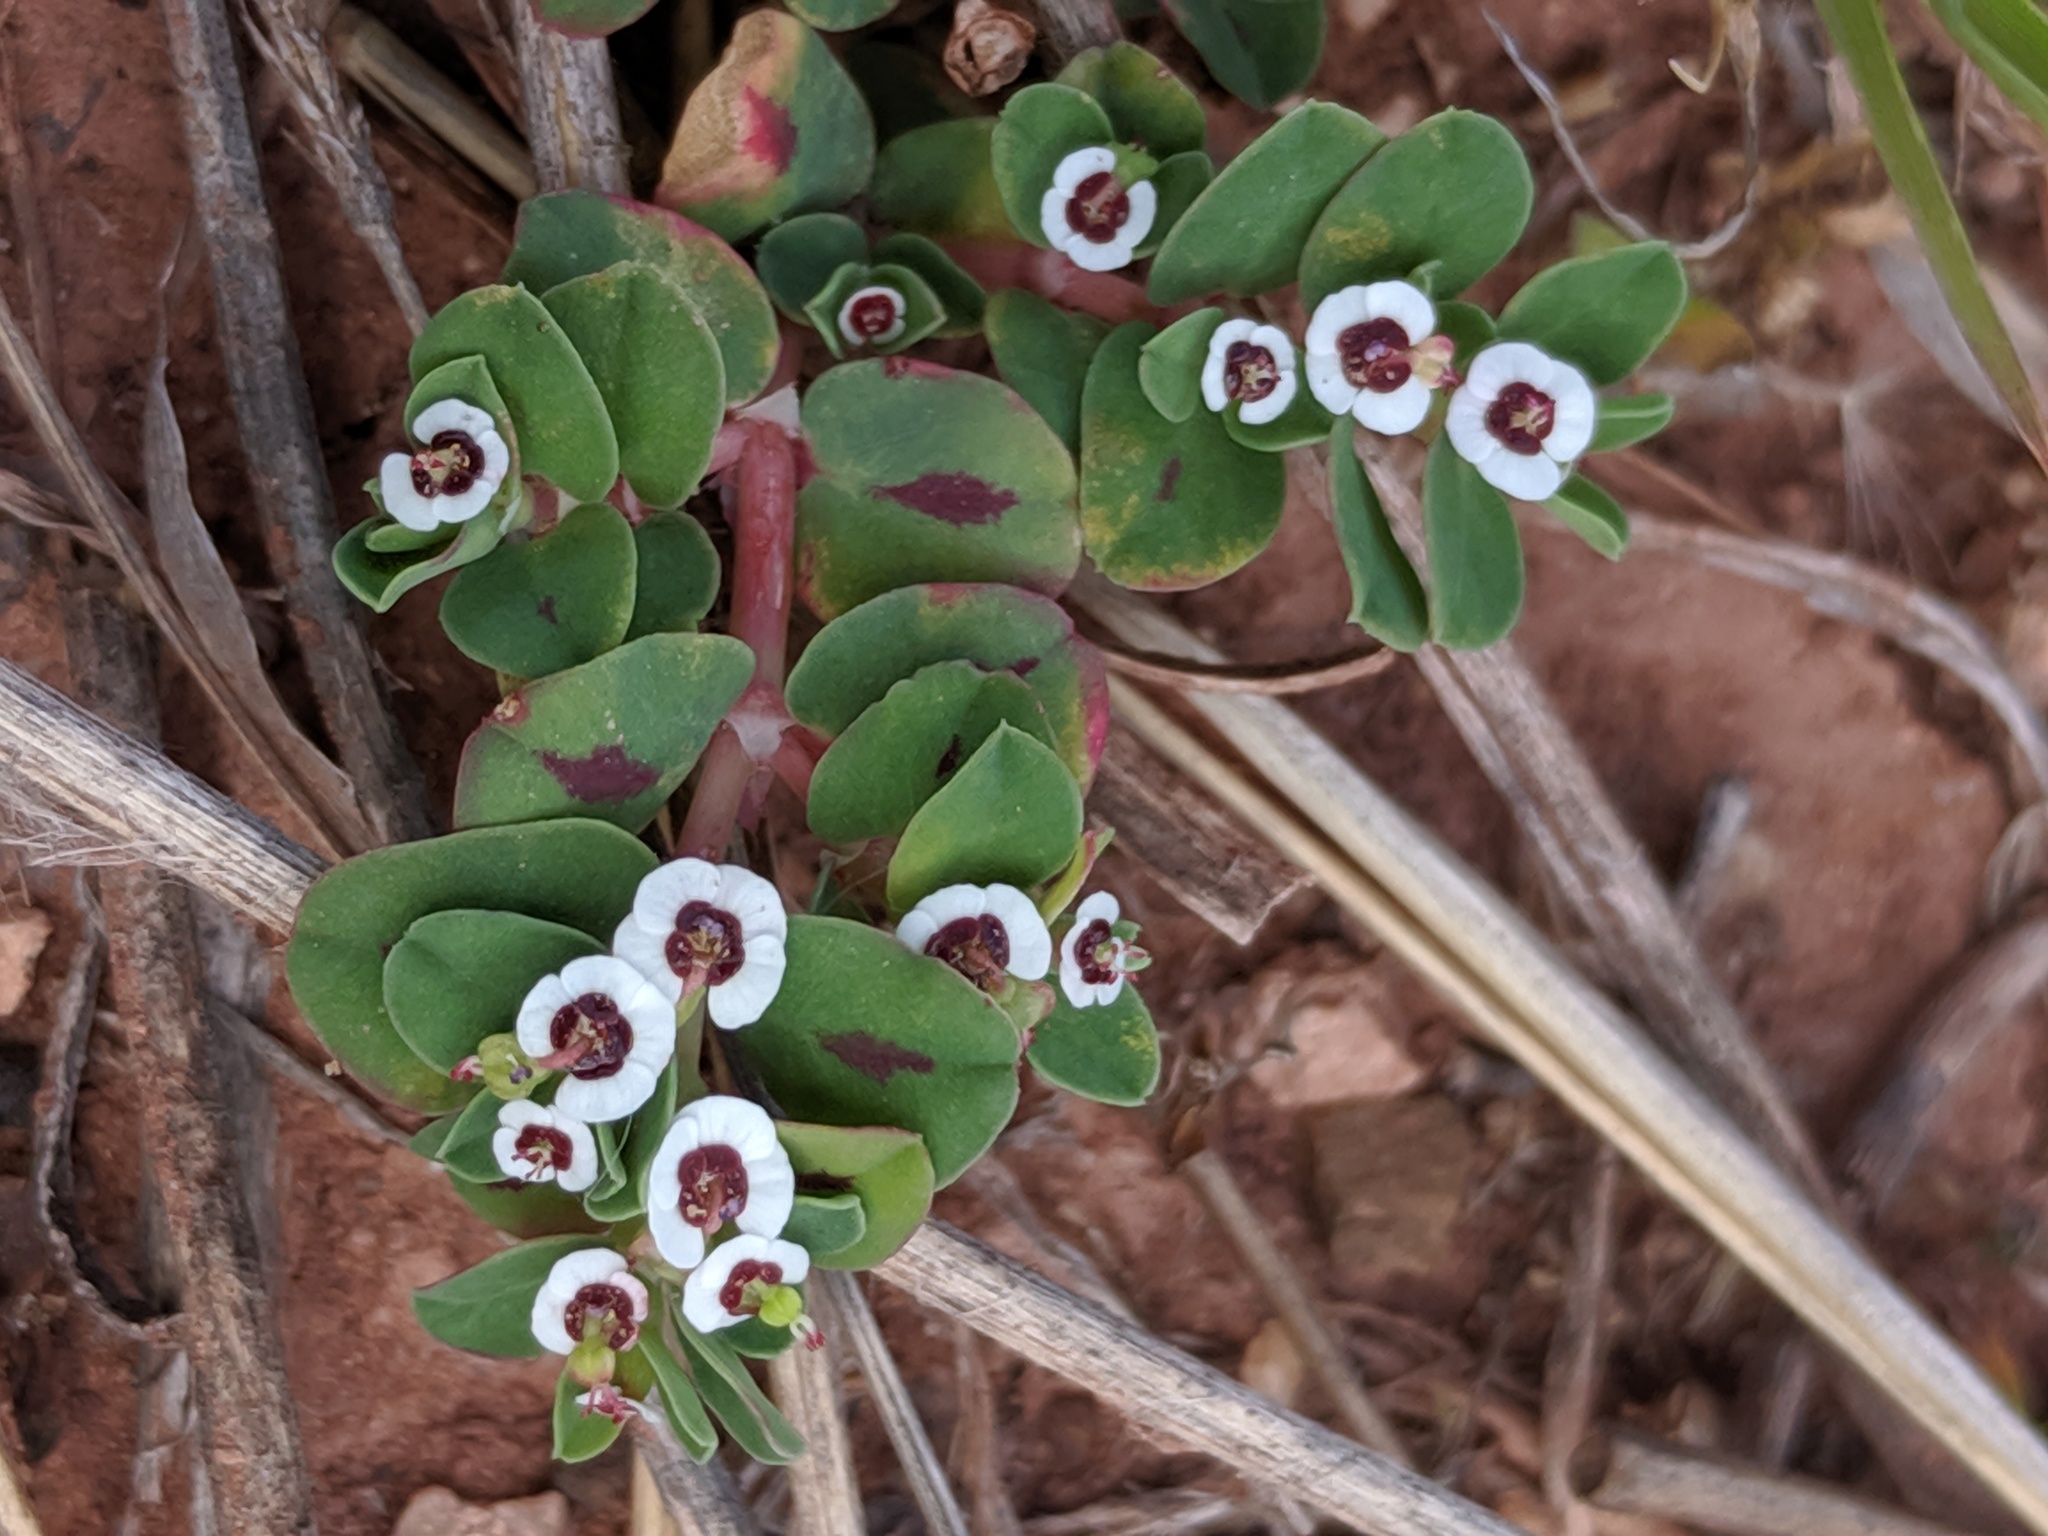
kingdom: Plantae
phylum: Tracheophyta
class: Magnoliopsida
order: Malpighiales
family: Euphorbiaceae
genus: Euphorbia
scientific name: Euphorbia albomarginata
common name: Whitemargin sandmat
